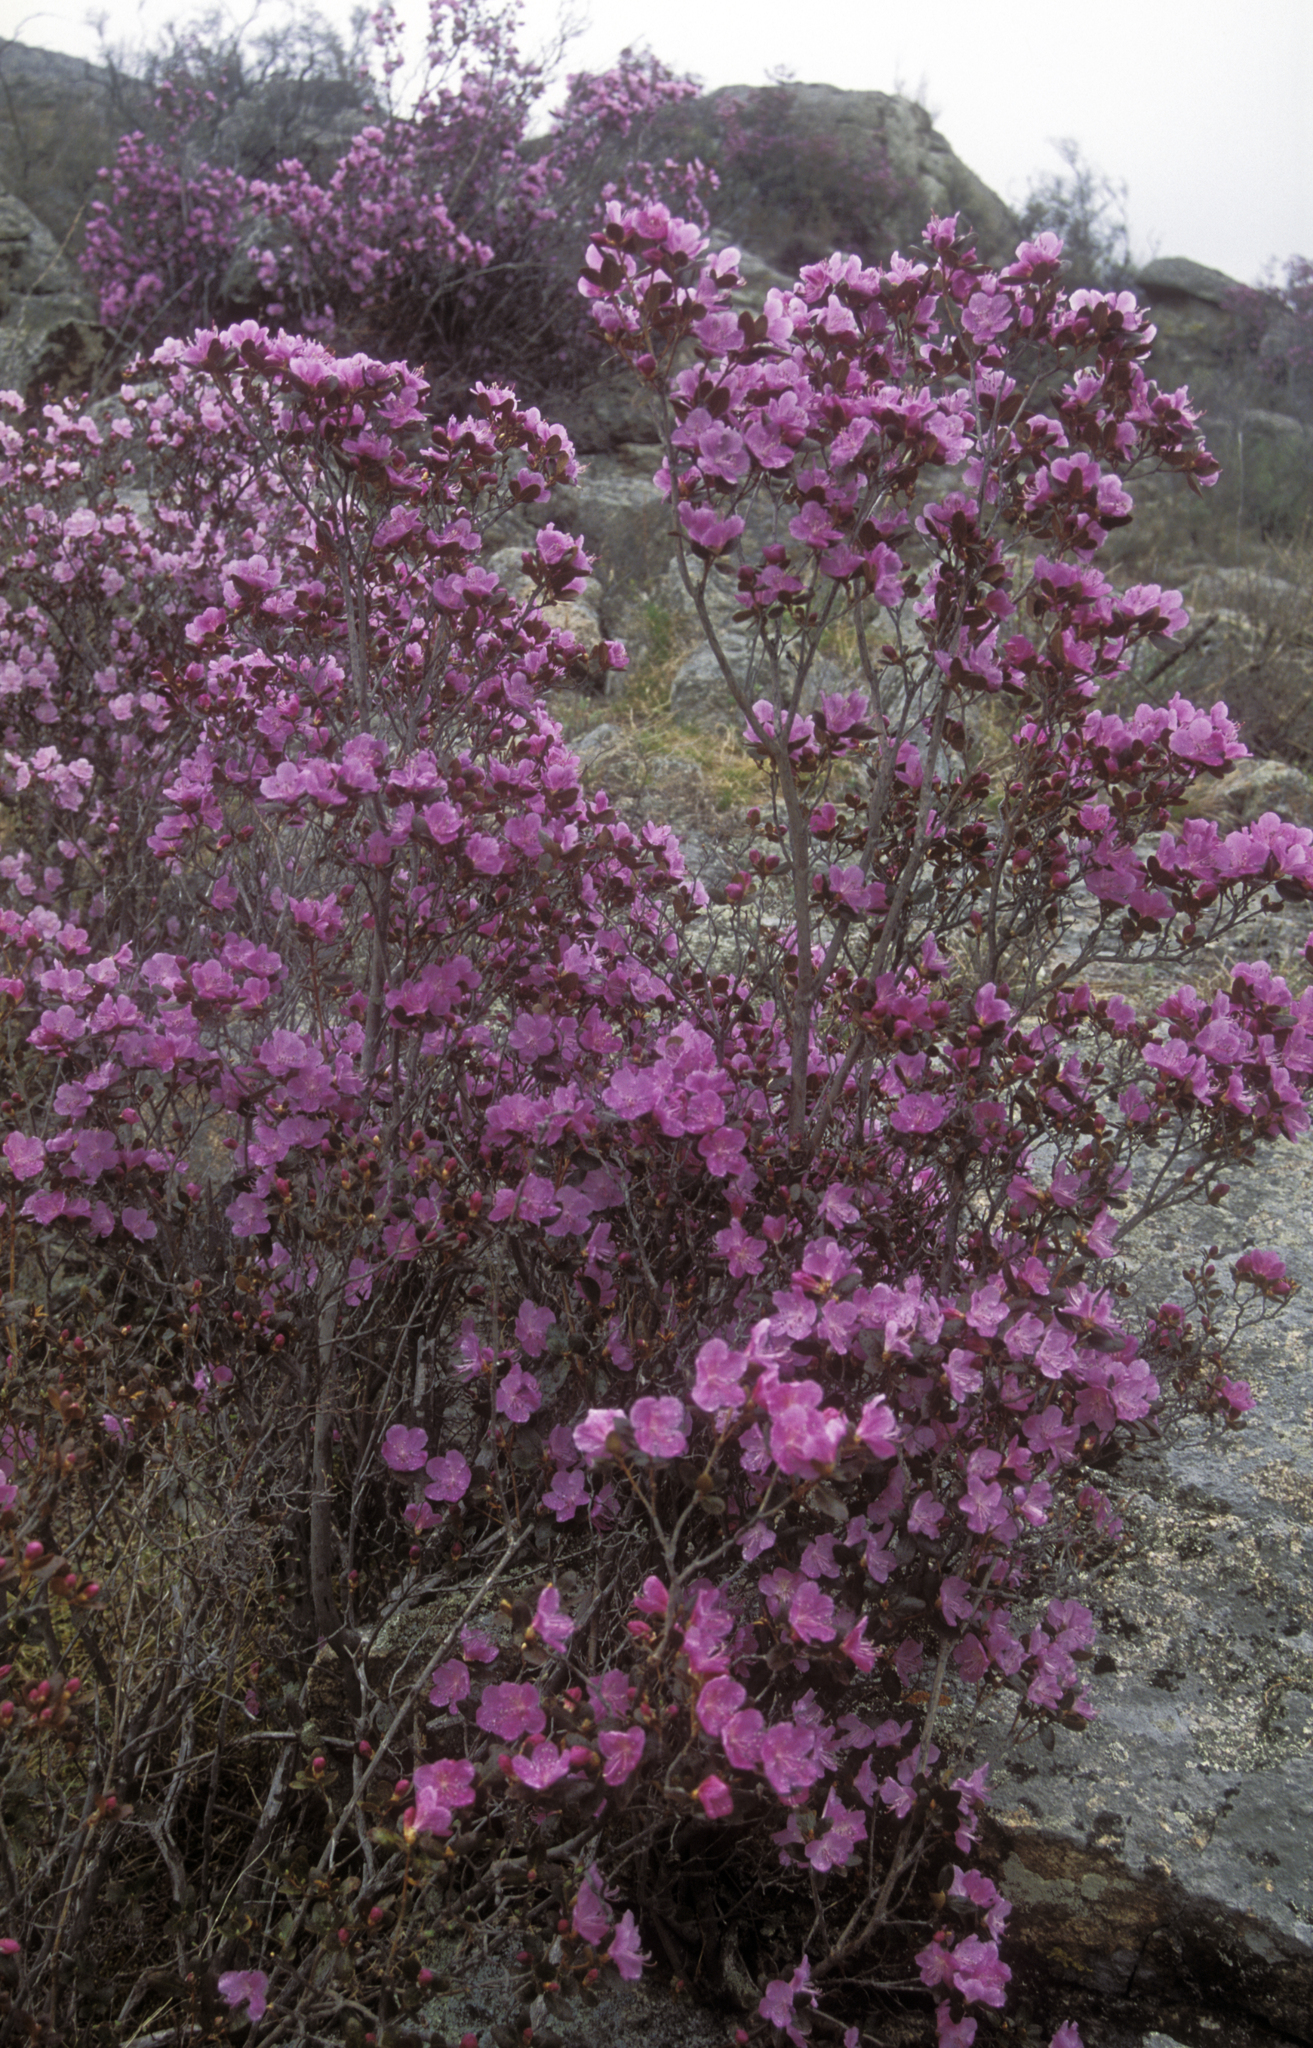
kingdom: Plantae
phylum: Tracheophyta
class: Magnoliopsida
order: Ericales
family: Ericaceae
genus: Rhododendron
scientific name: Rhododendron dauricum
